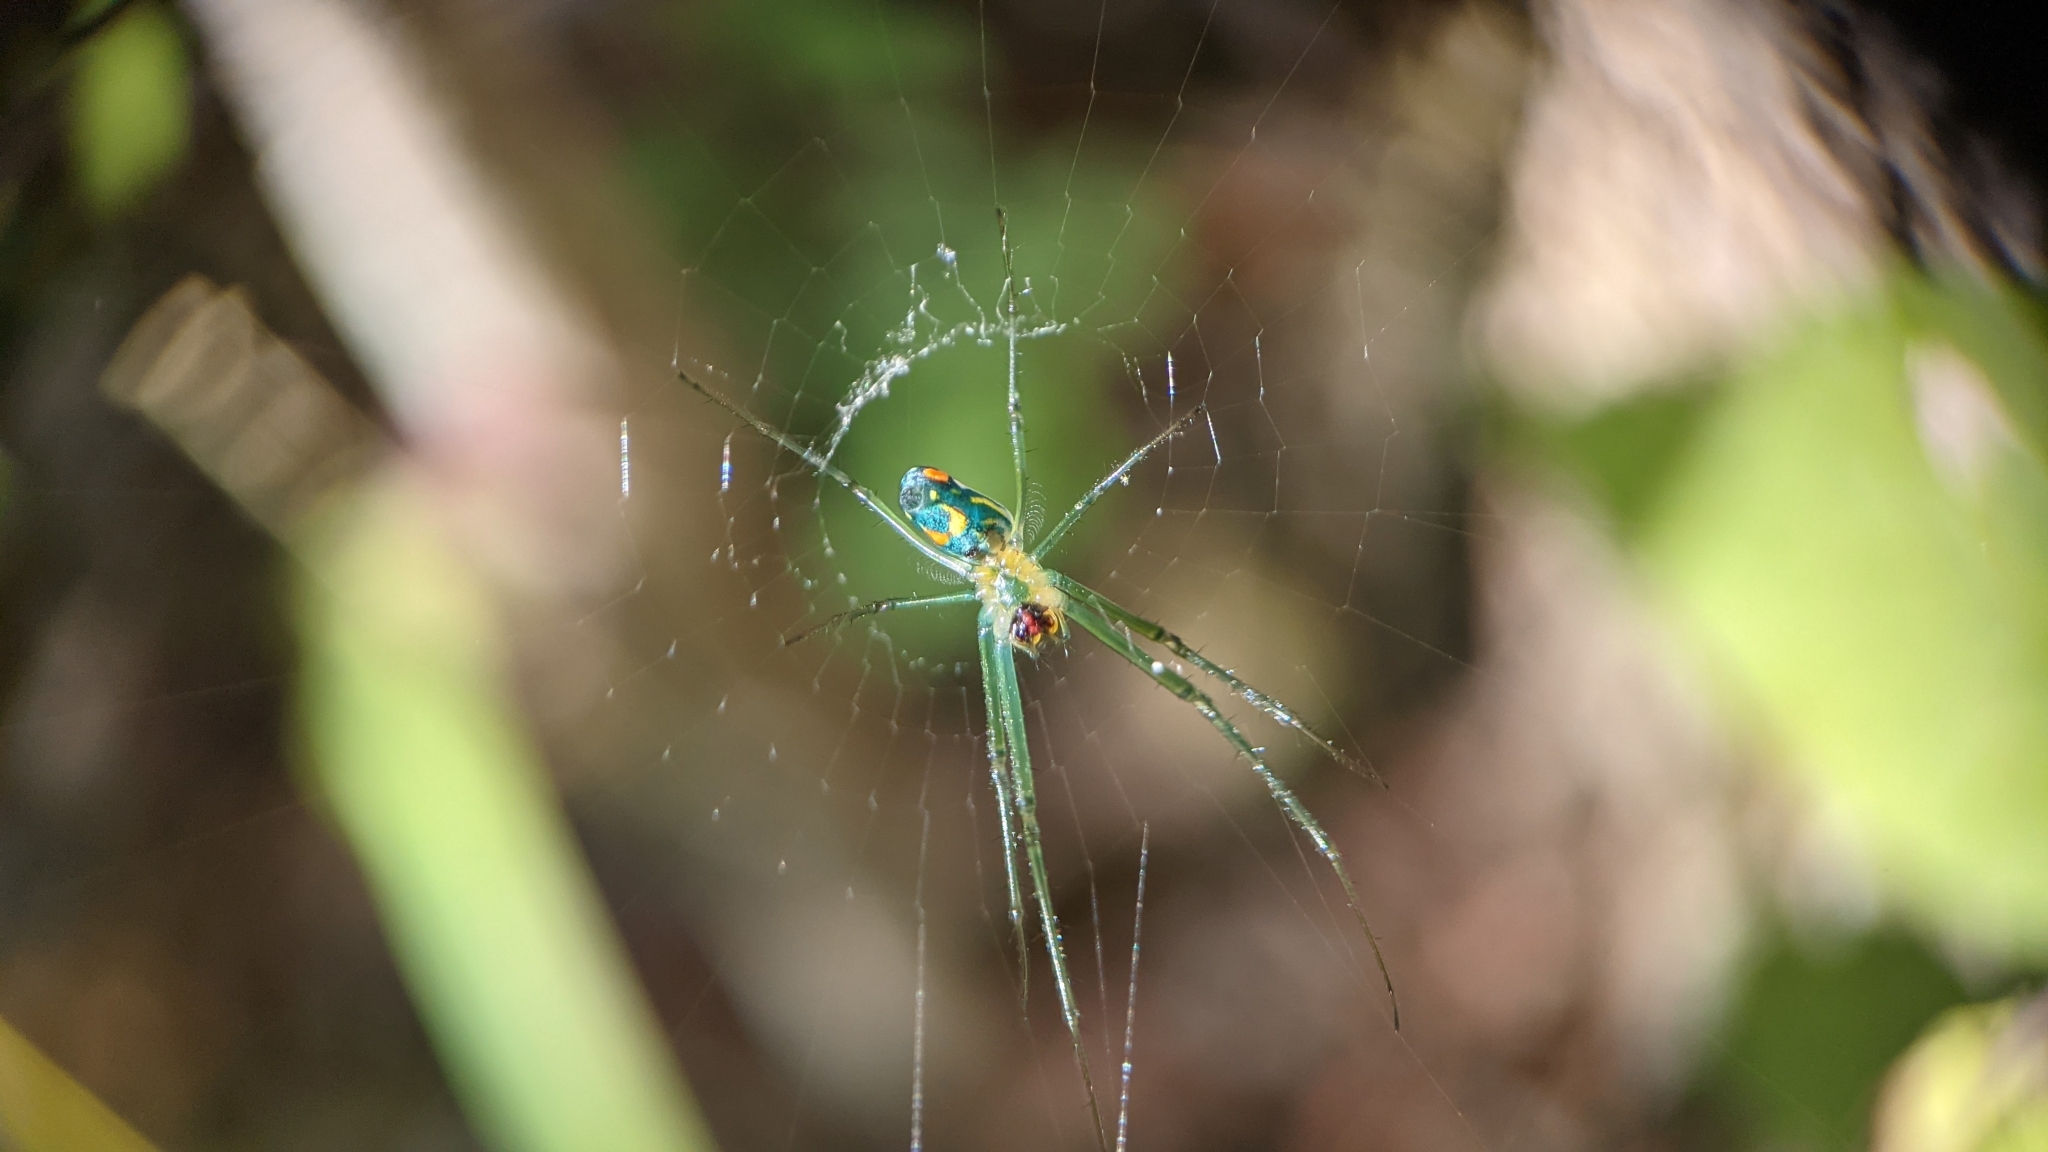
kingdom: Animalia
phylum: Arthropoda
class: Arachnida
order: Araneae
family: Tetragnathidae
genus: Leucauge
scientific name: Leucauge argyrobapta
